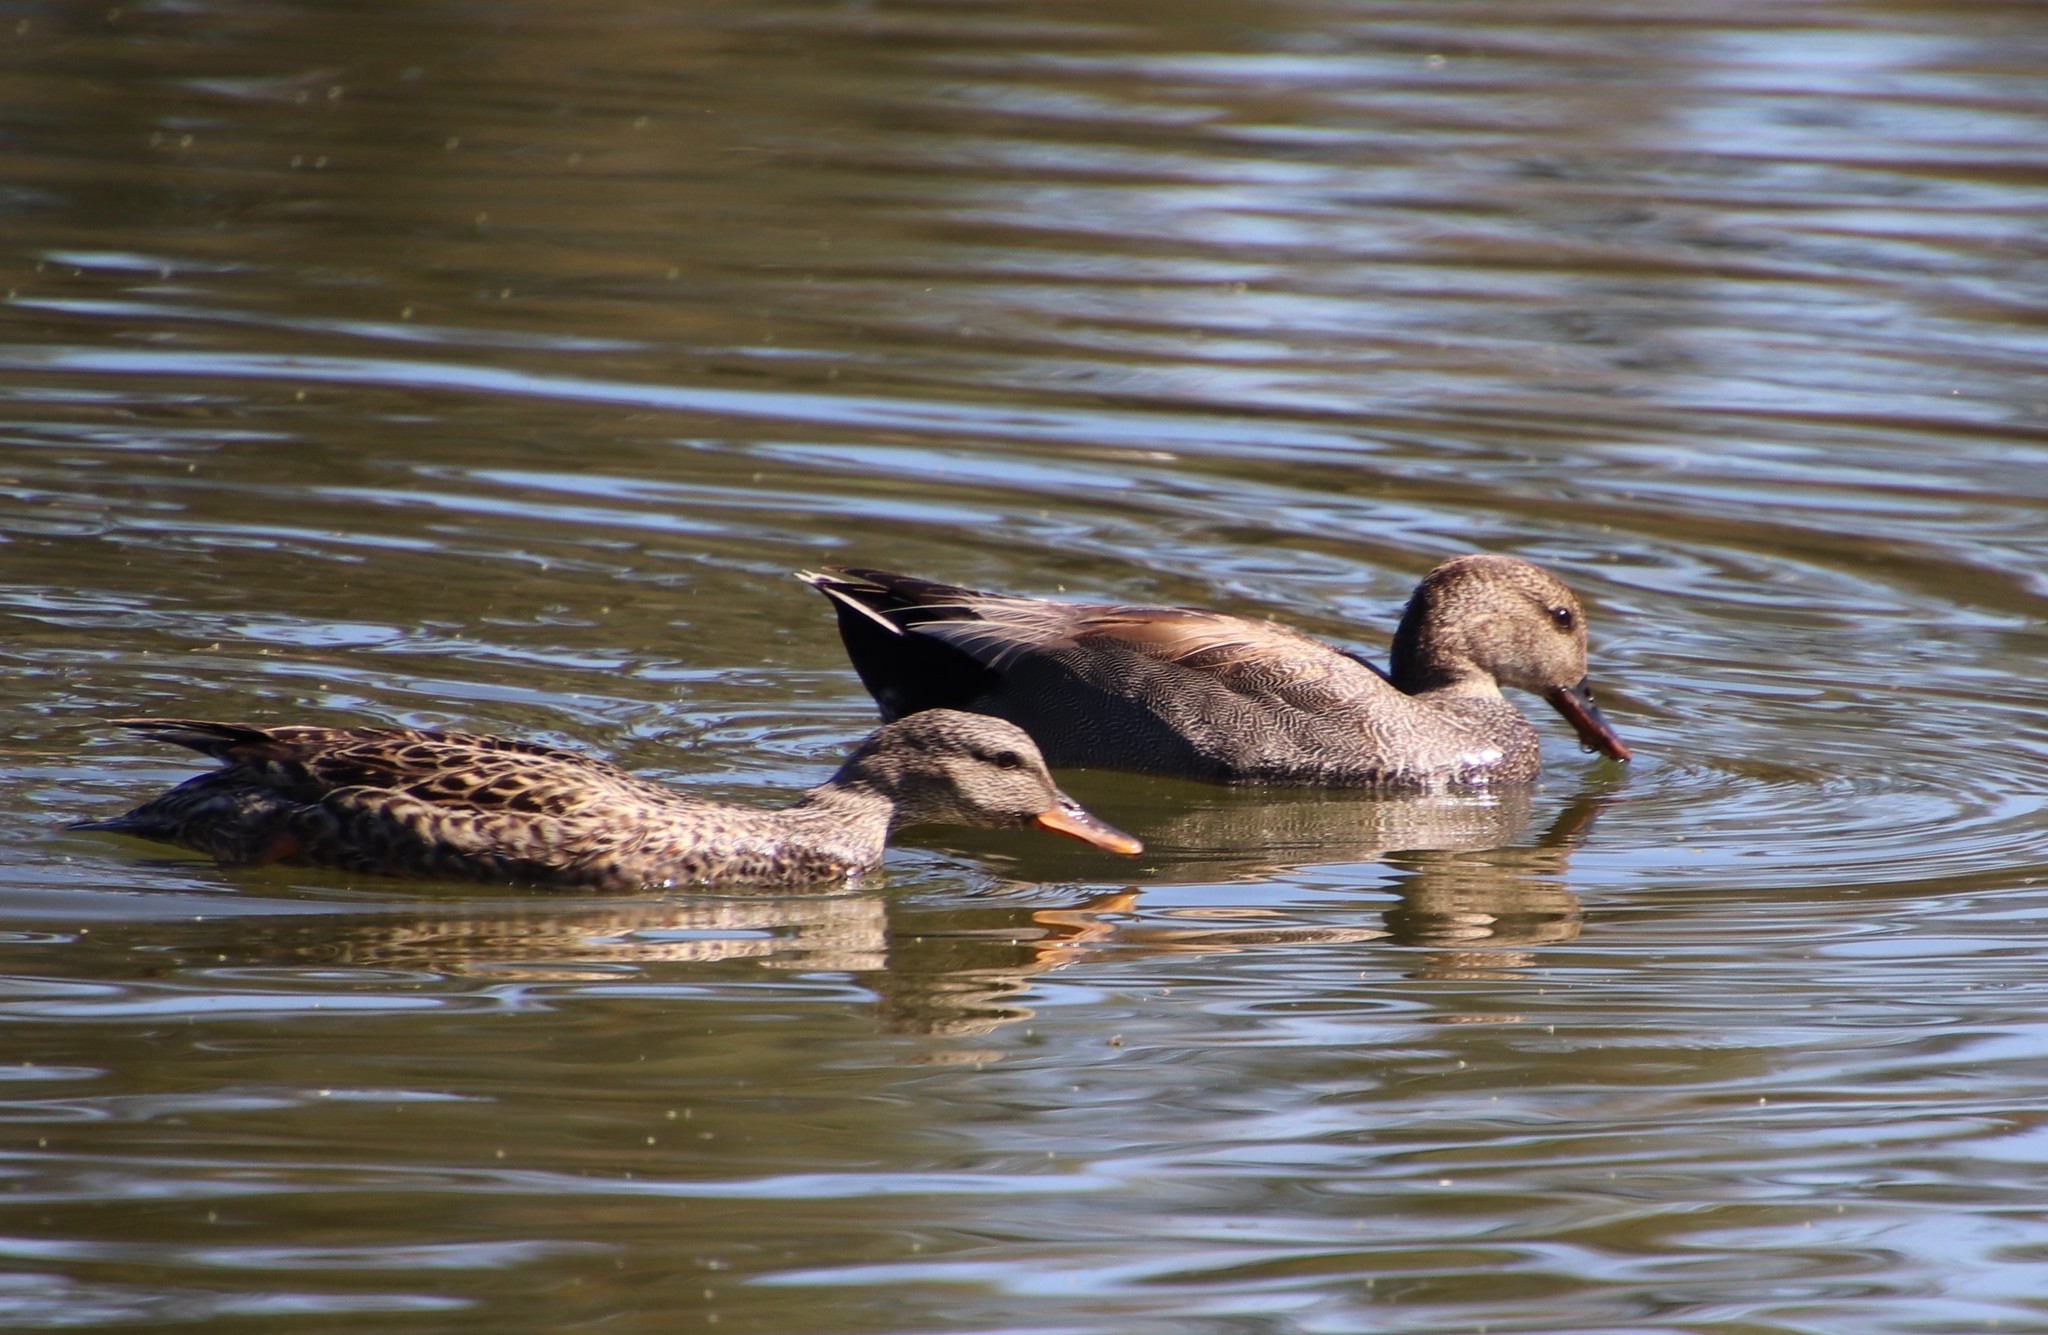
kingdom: Animalia
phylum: Chordata
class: Aves
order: Anseriformes
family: Anatidae
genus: Mareca
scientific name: Mareca strepera
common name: Gadwall
